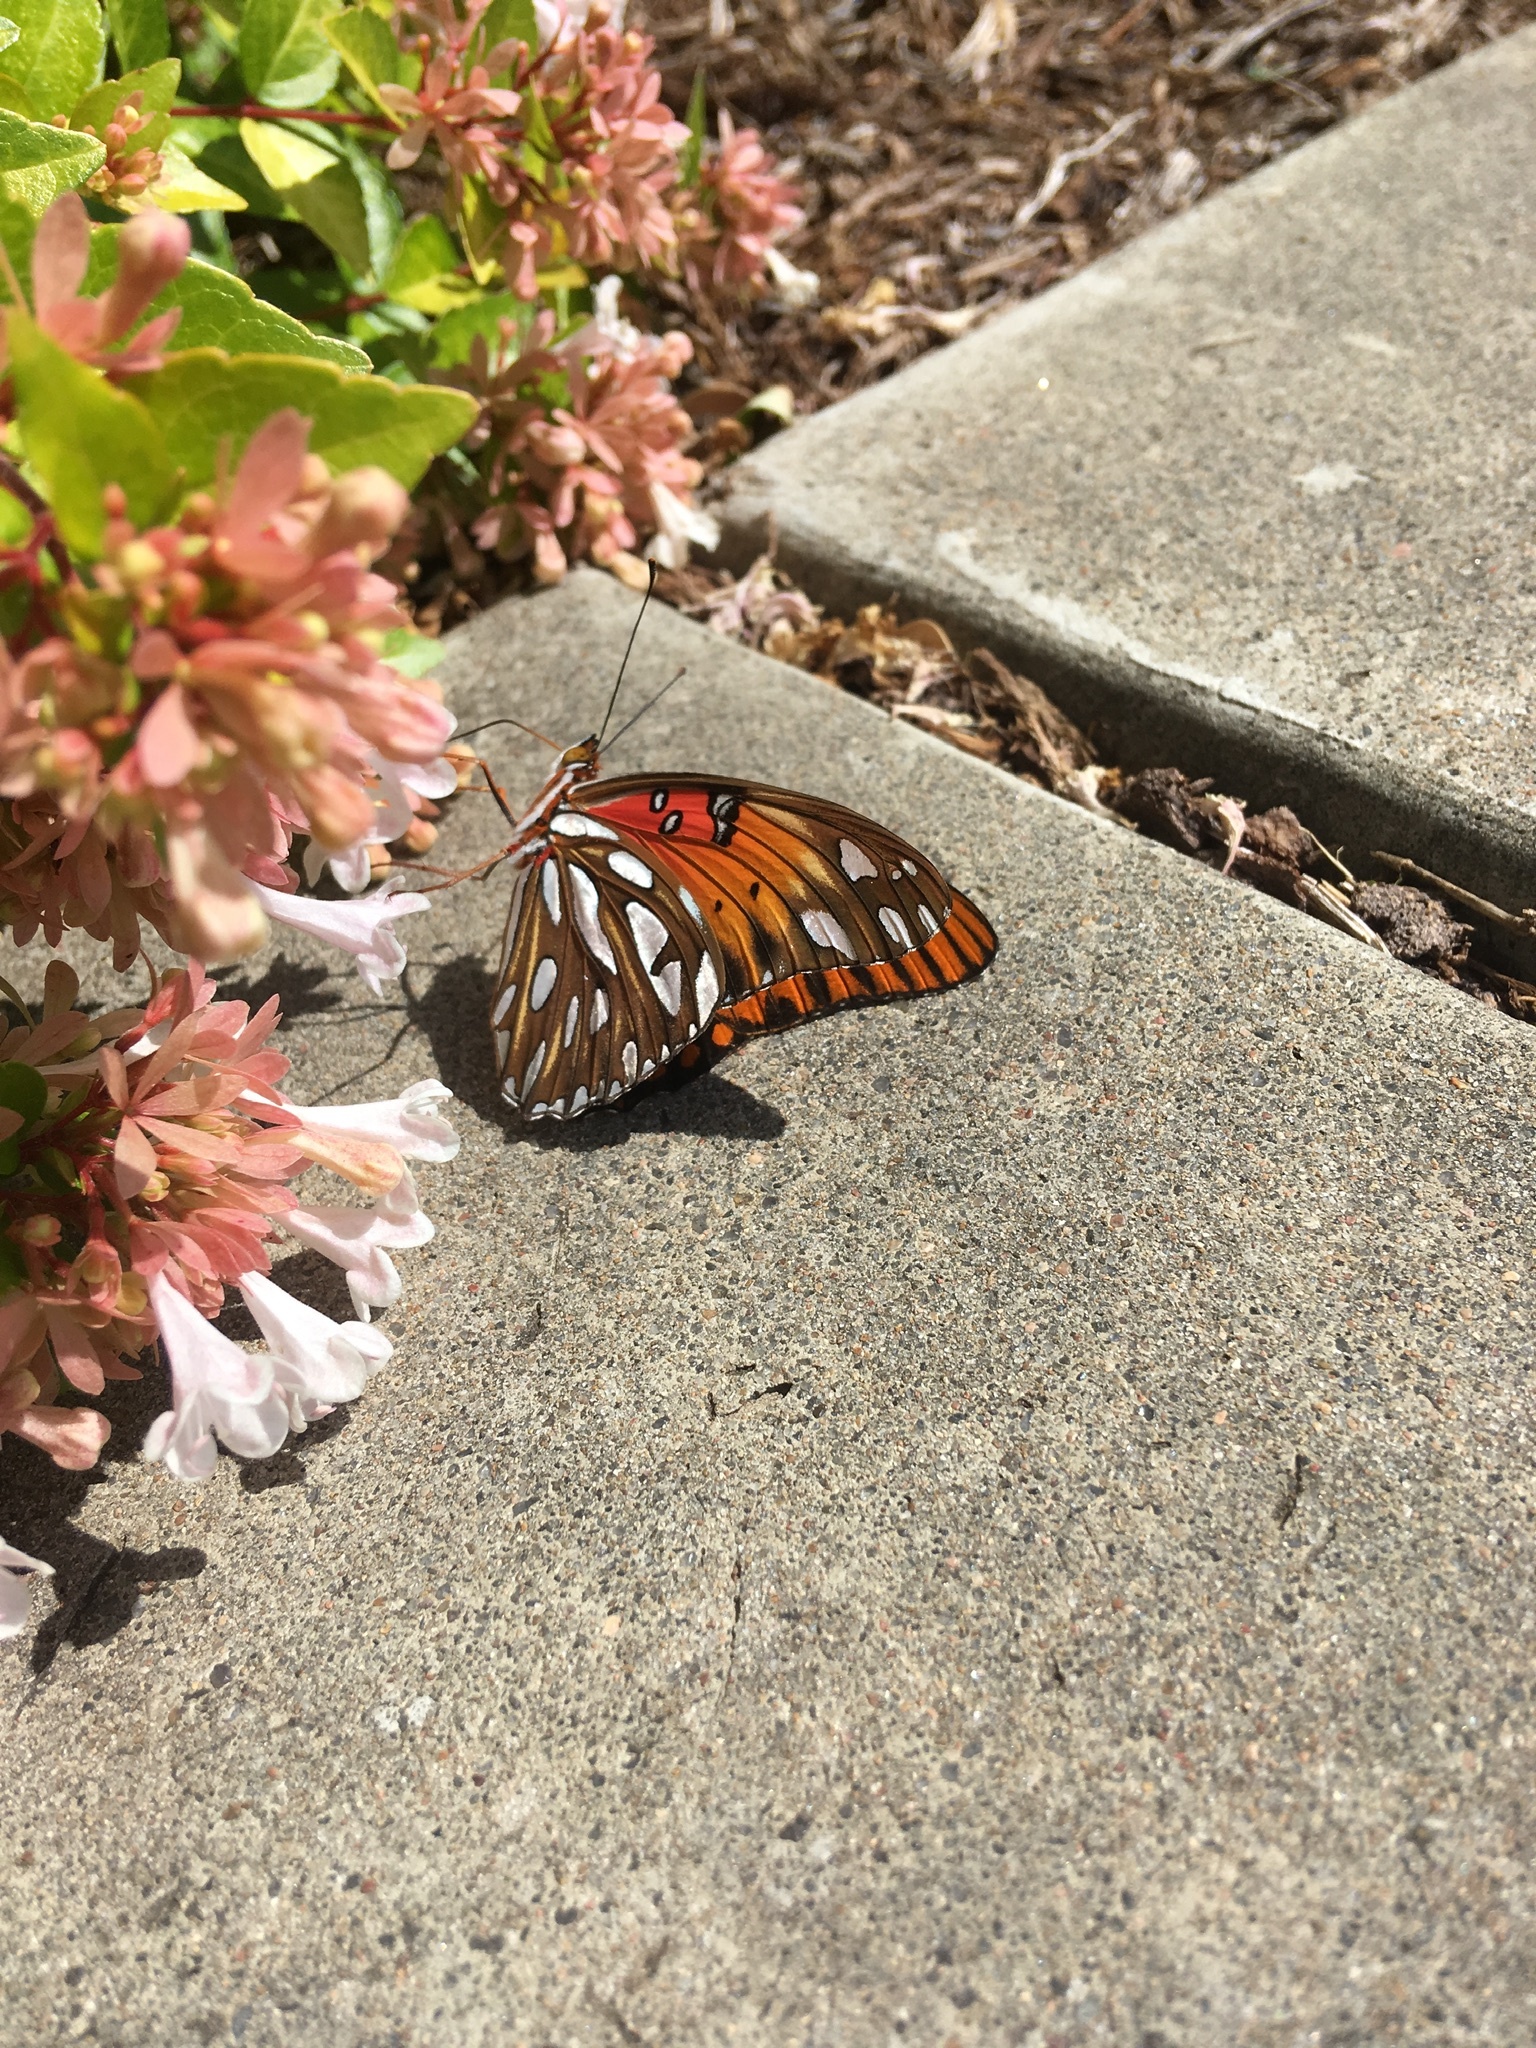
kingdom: Animalia
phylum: Arthropoda
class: Insecta
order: Lepidoptera
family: Nymphalidae
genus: Dione
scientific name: Dione vanillae
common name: Gulf fritillary
